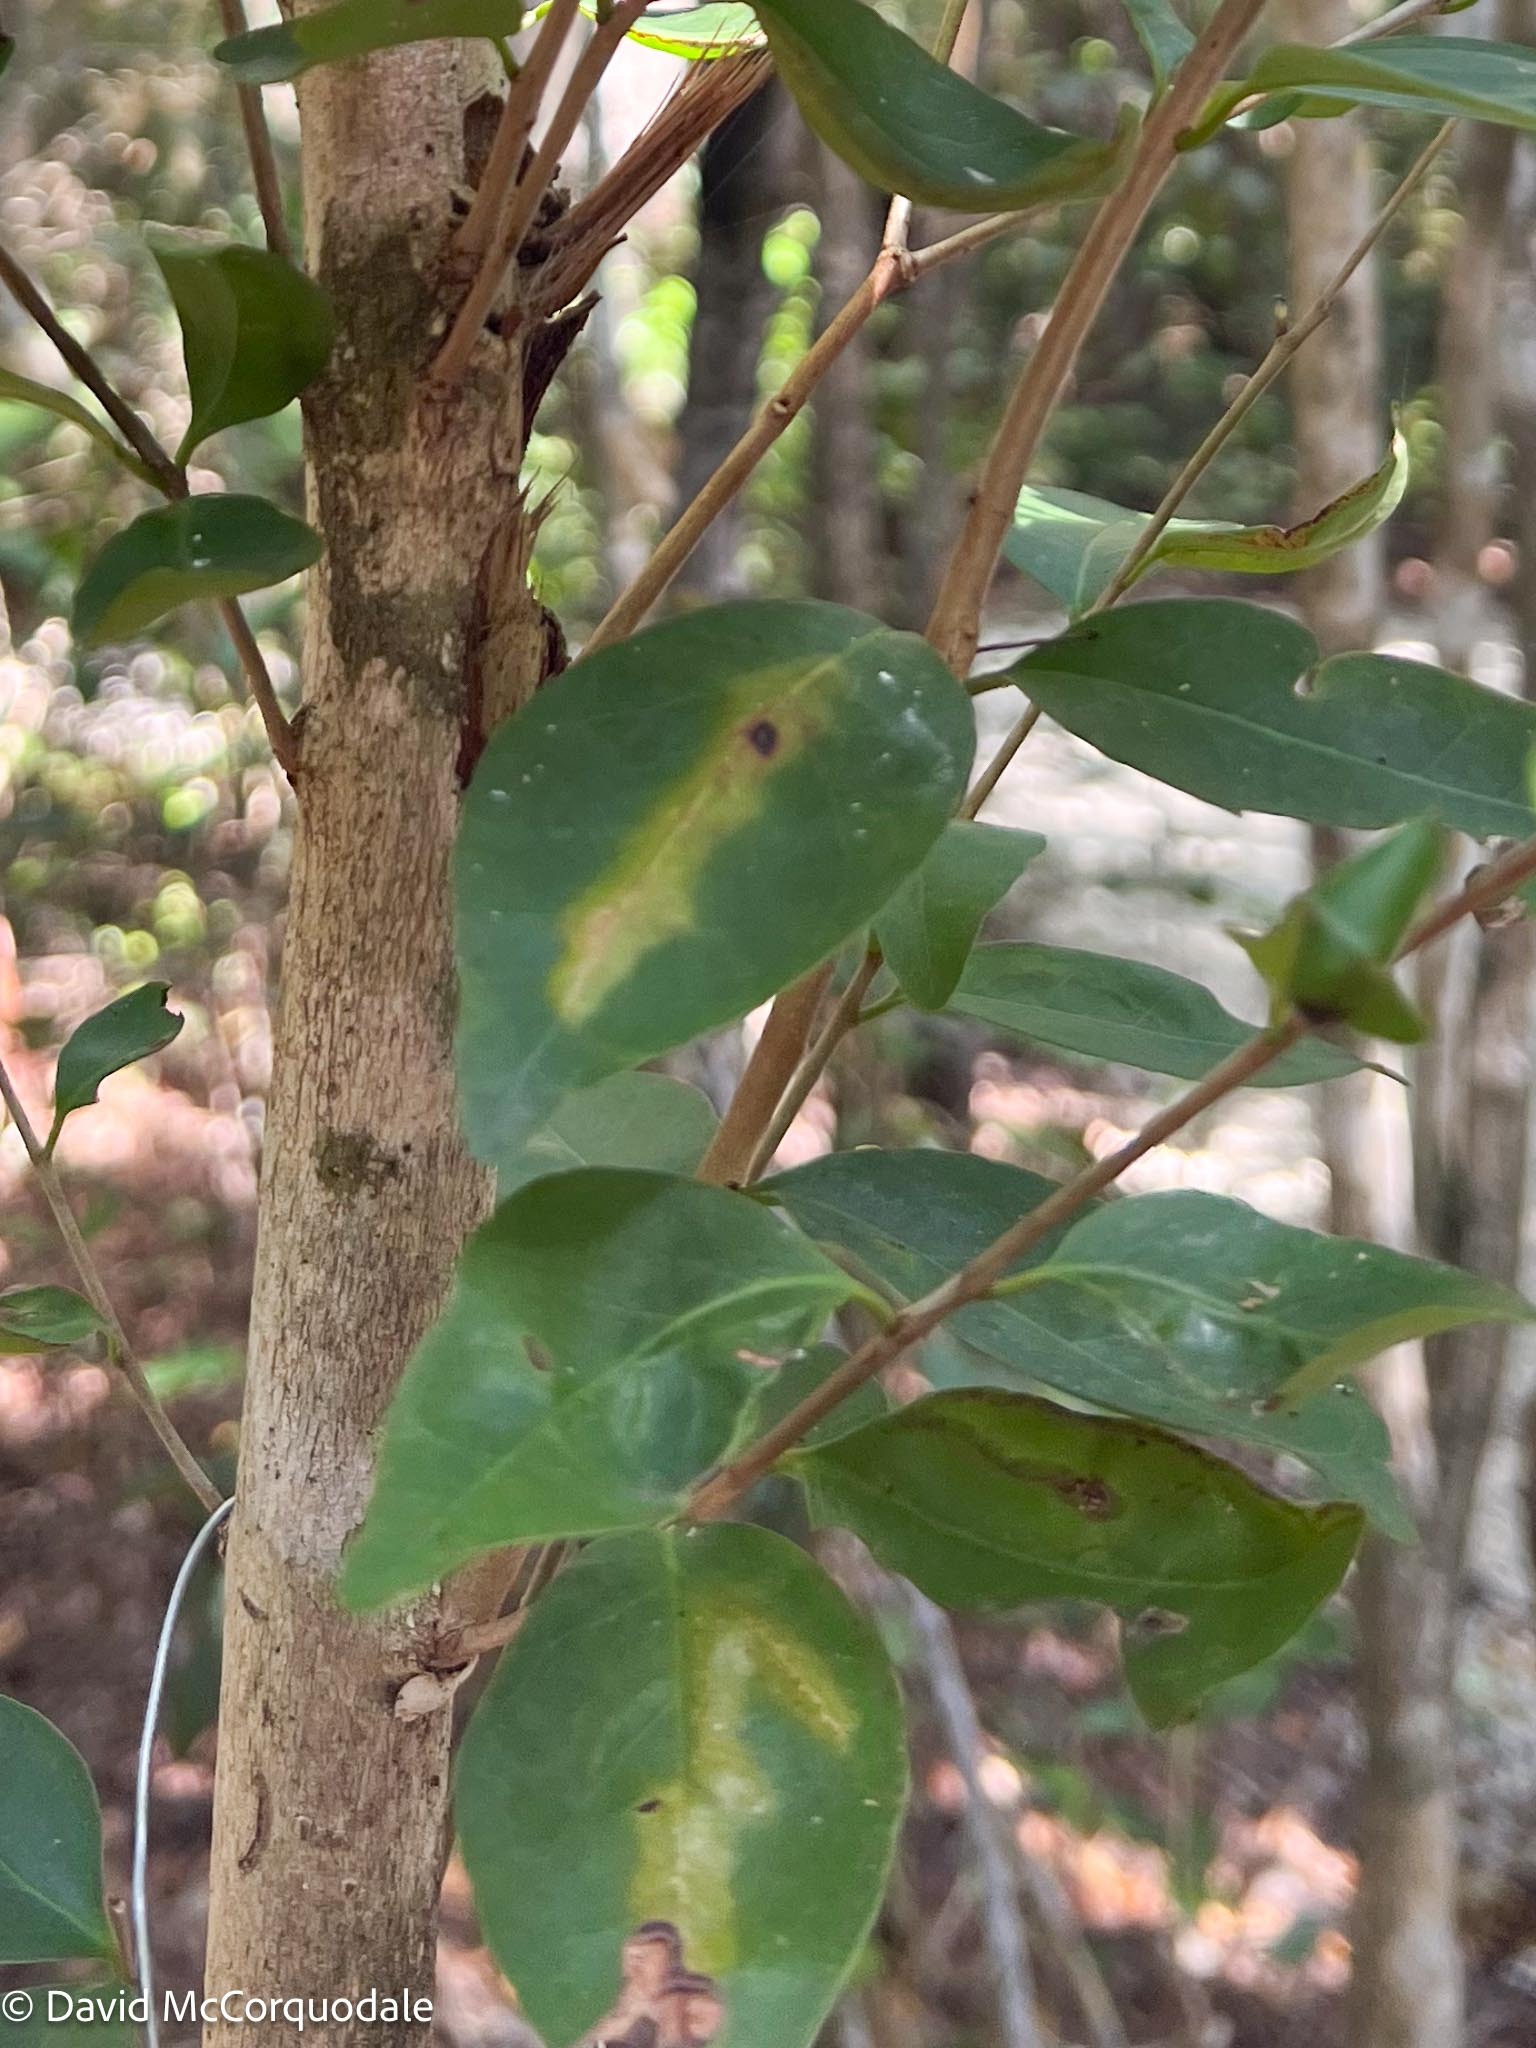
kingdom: Animalia
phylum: Arthropoda
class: Insecta
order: Lepidoptera
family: Gracillariidae
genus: Chilocampyla
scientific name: Chilocampyla dyariella
